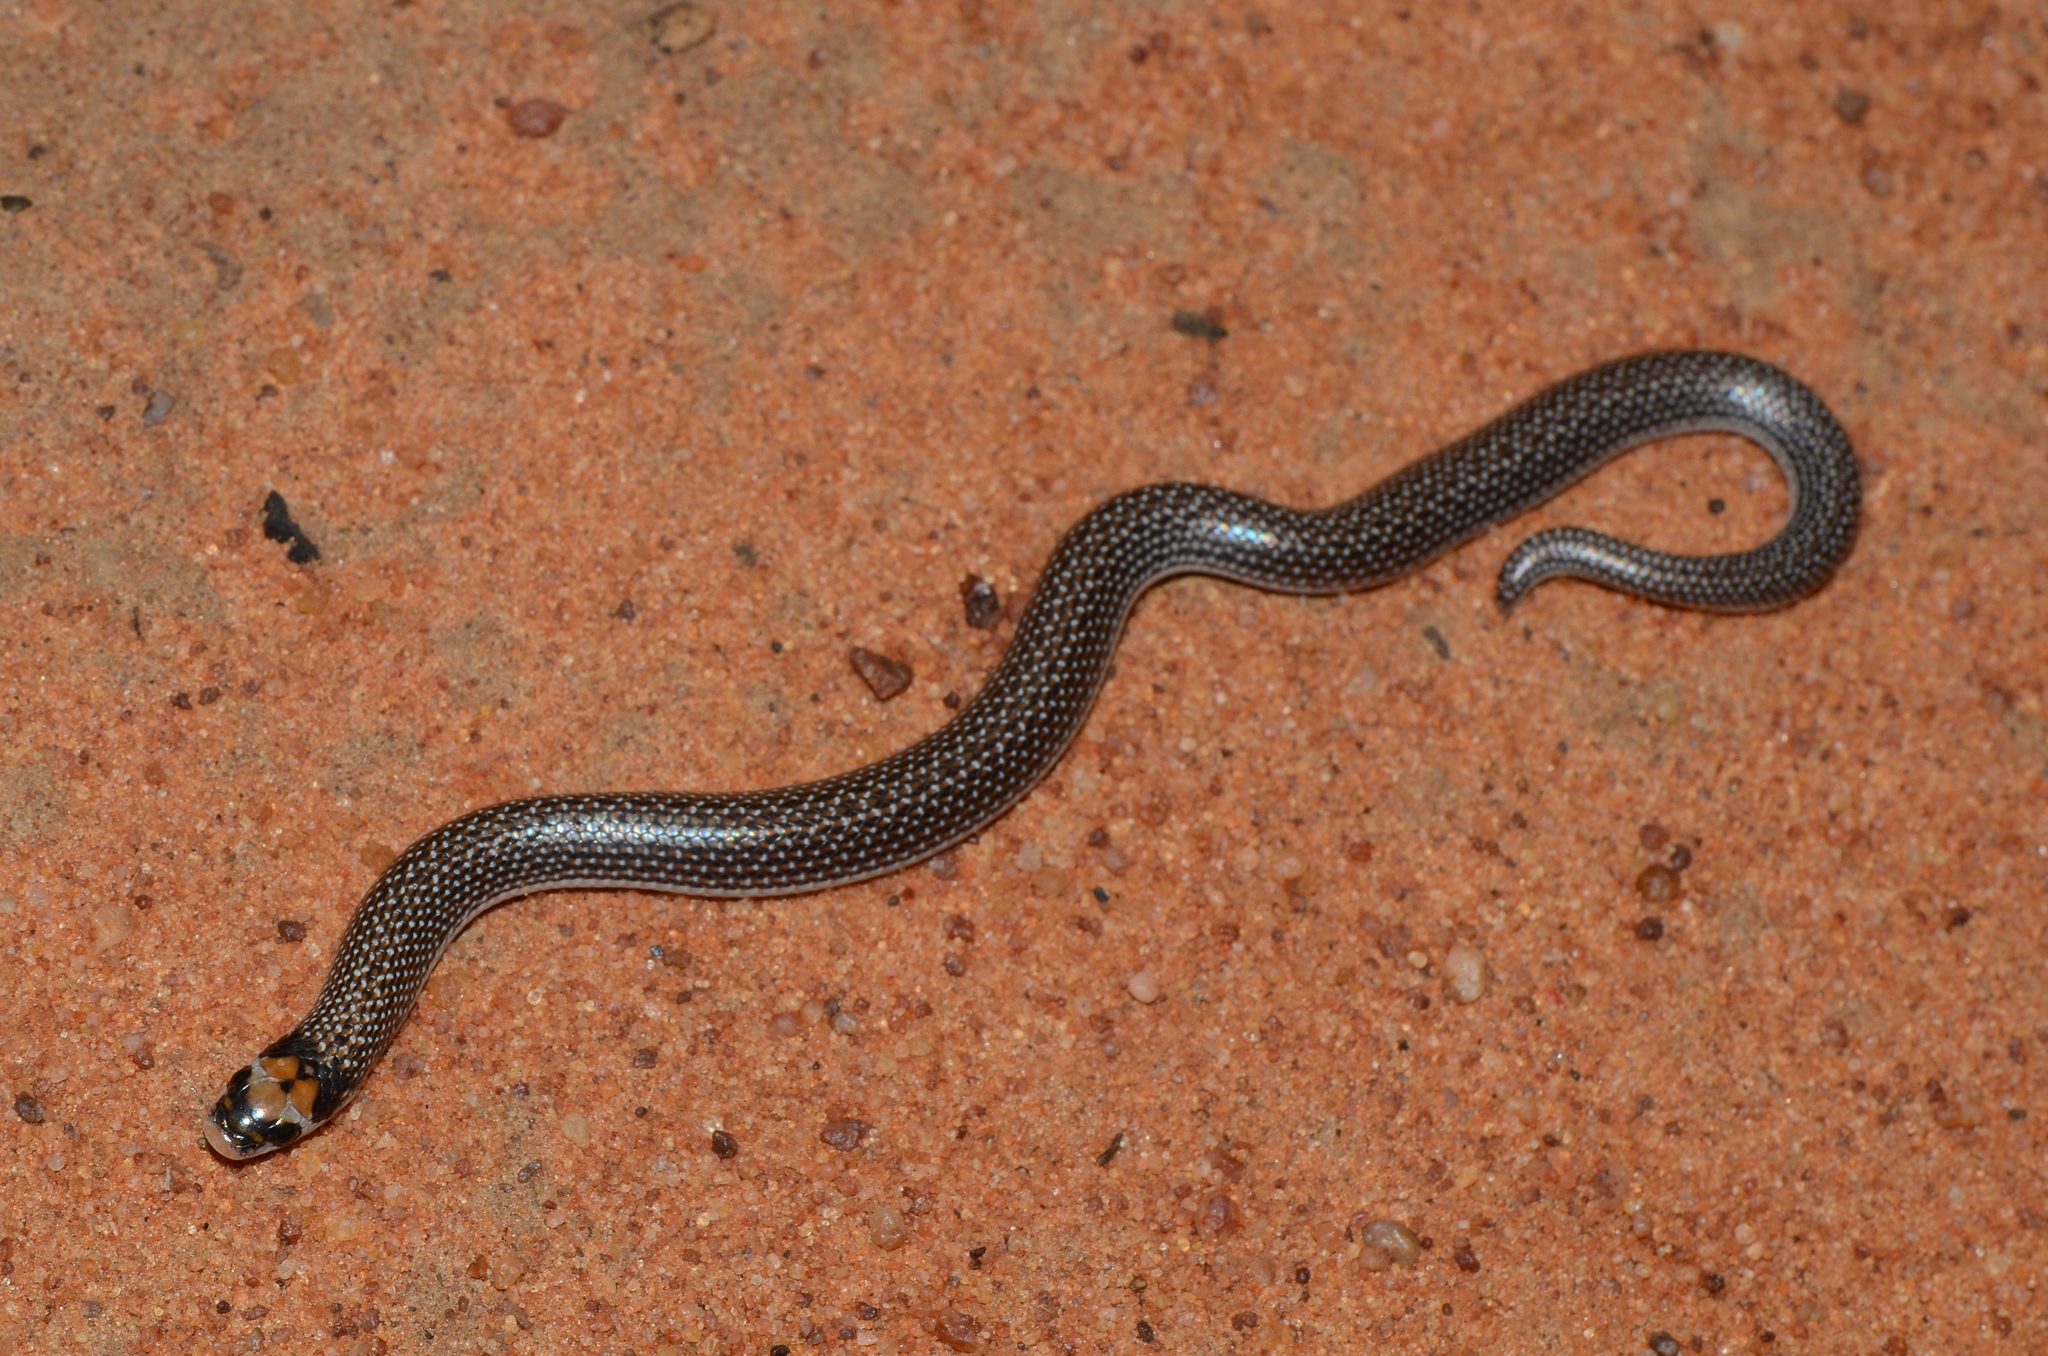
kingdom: Animalia
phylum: Chordata
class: Squamata
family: Prosymnidae
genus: Prosymna
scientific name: Prosymna lineata
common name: Lined shovel-snout
